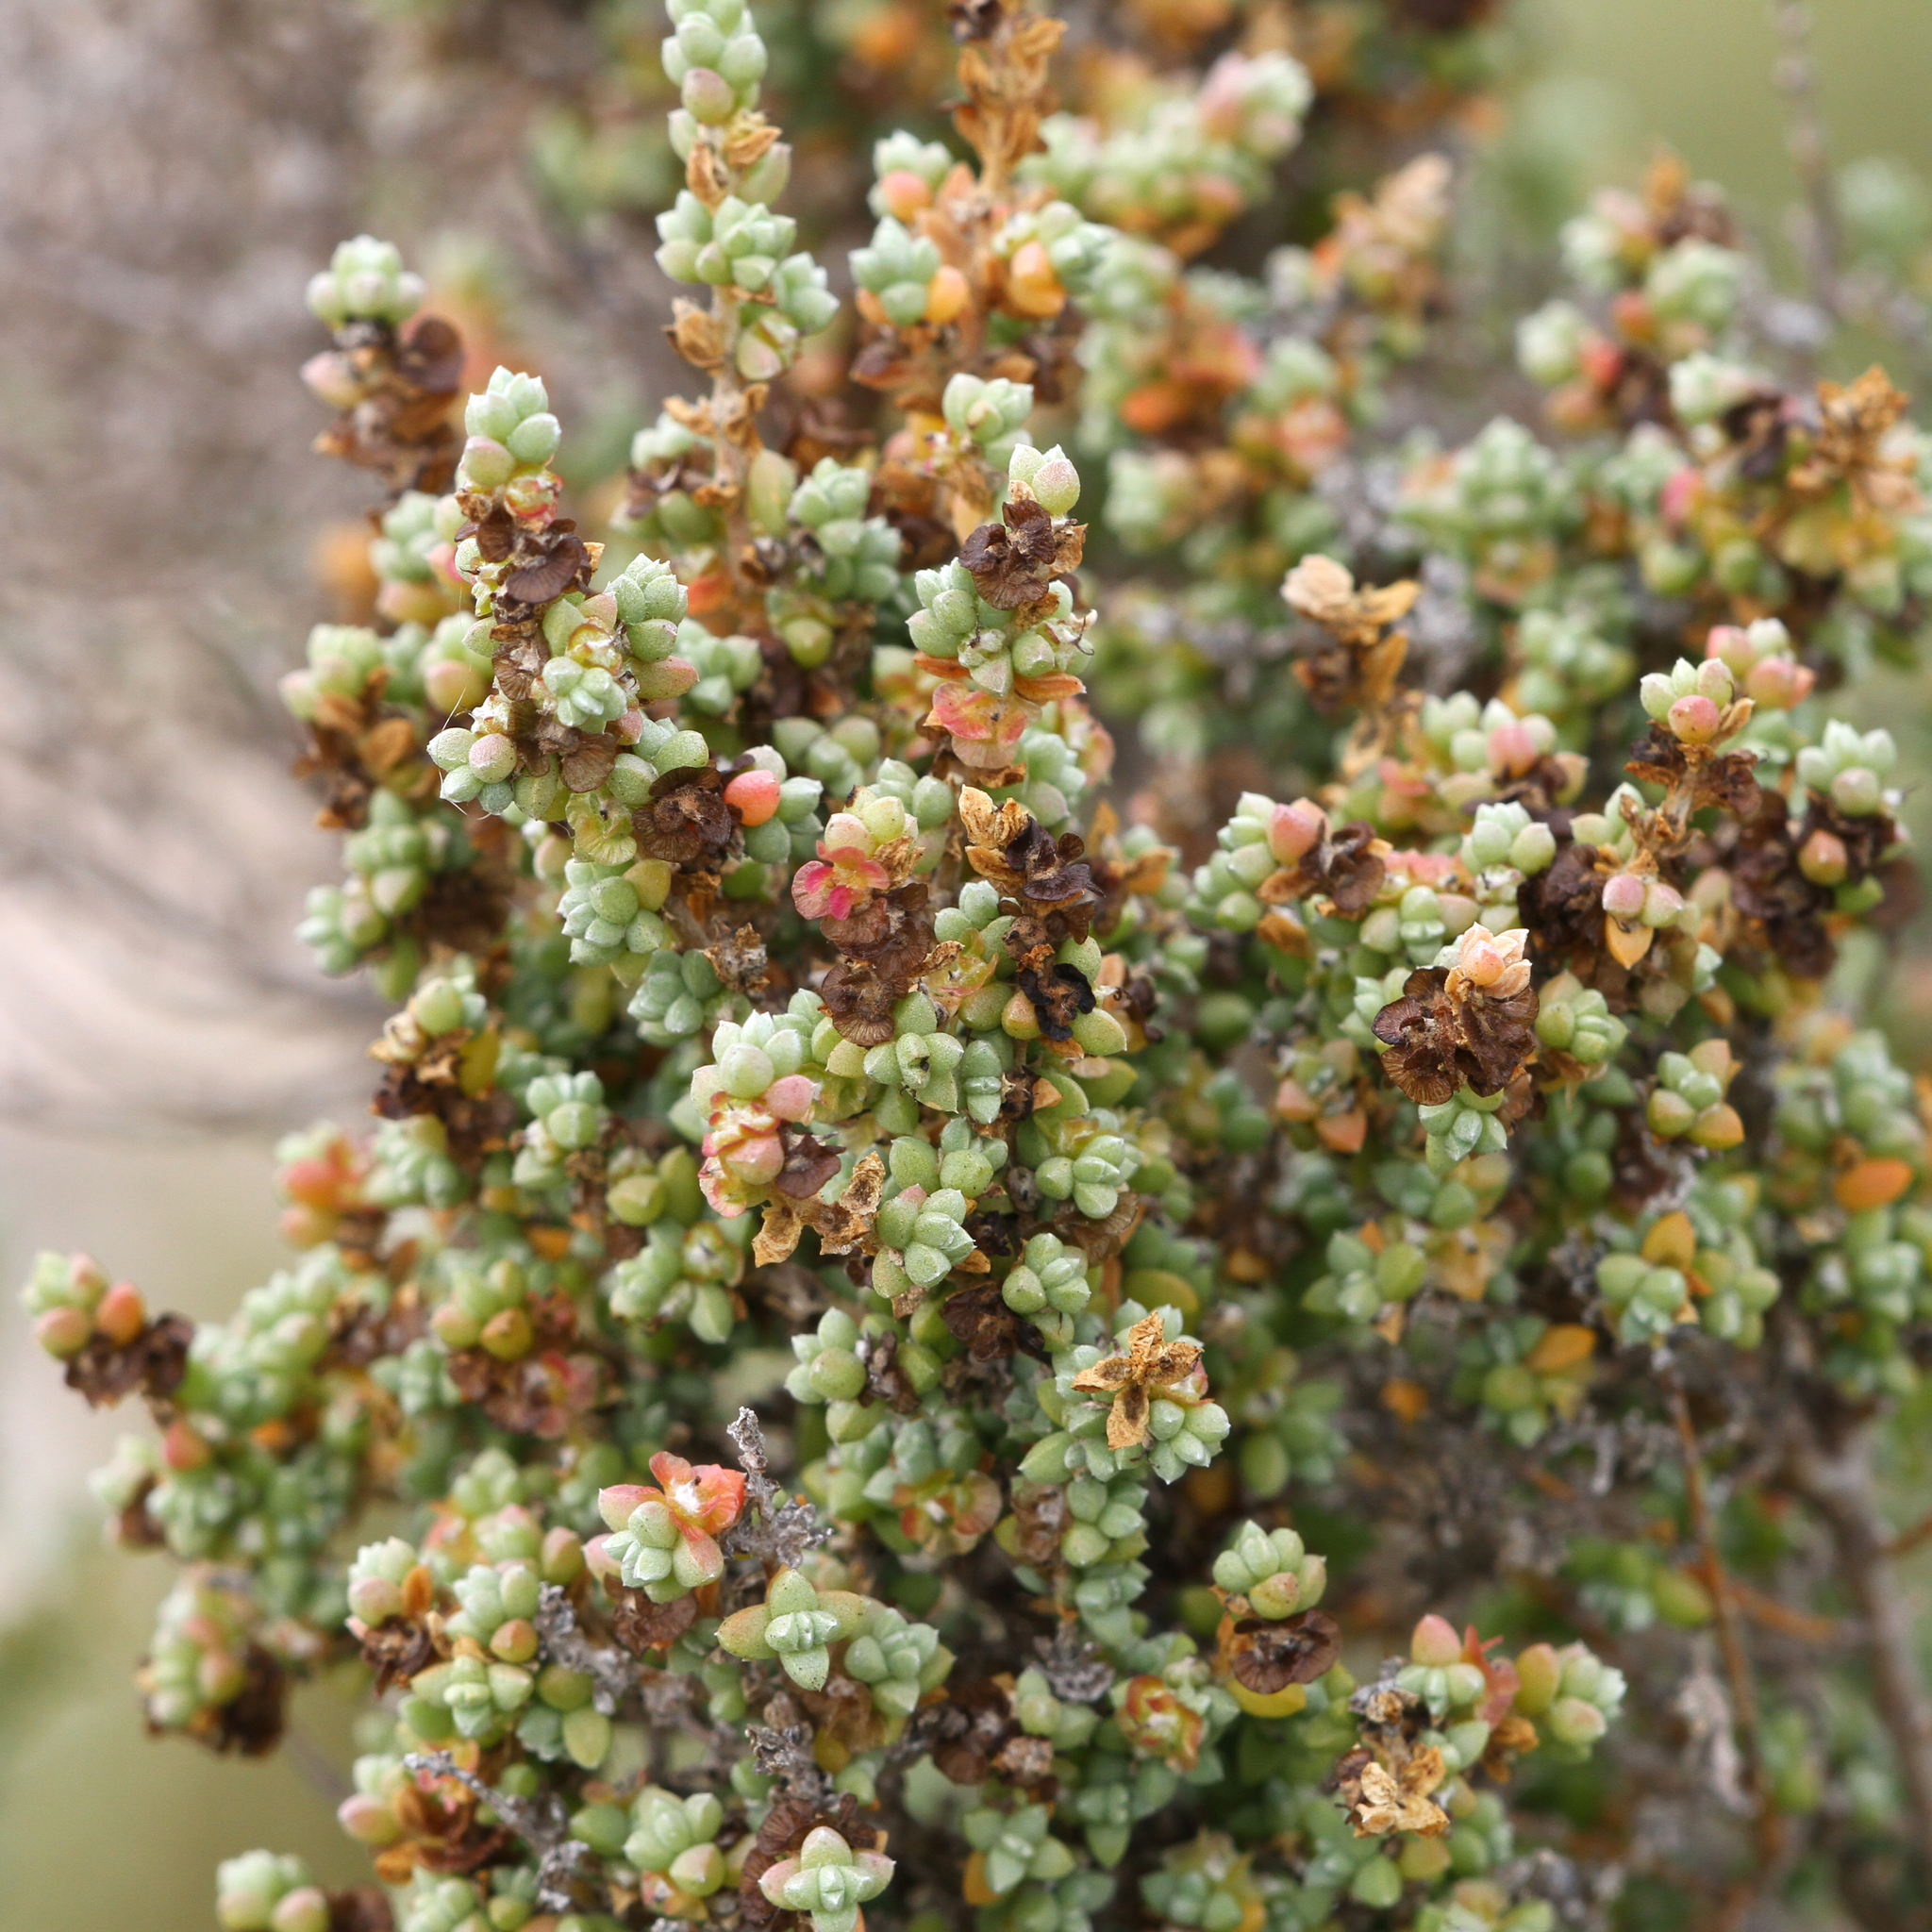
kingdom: Plantae
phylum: Tracheophyta
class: Magnoliopsida
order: Caryophyllales
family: Amaranthaceae
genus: Maireana
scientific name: Maireana oppositifolia
